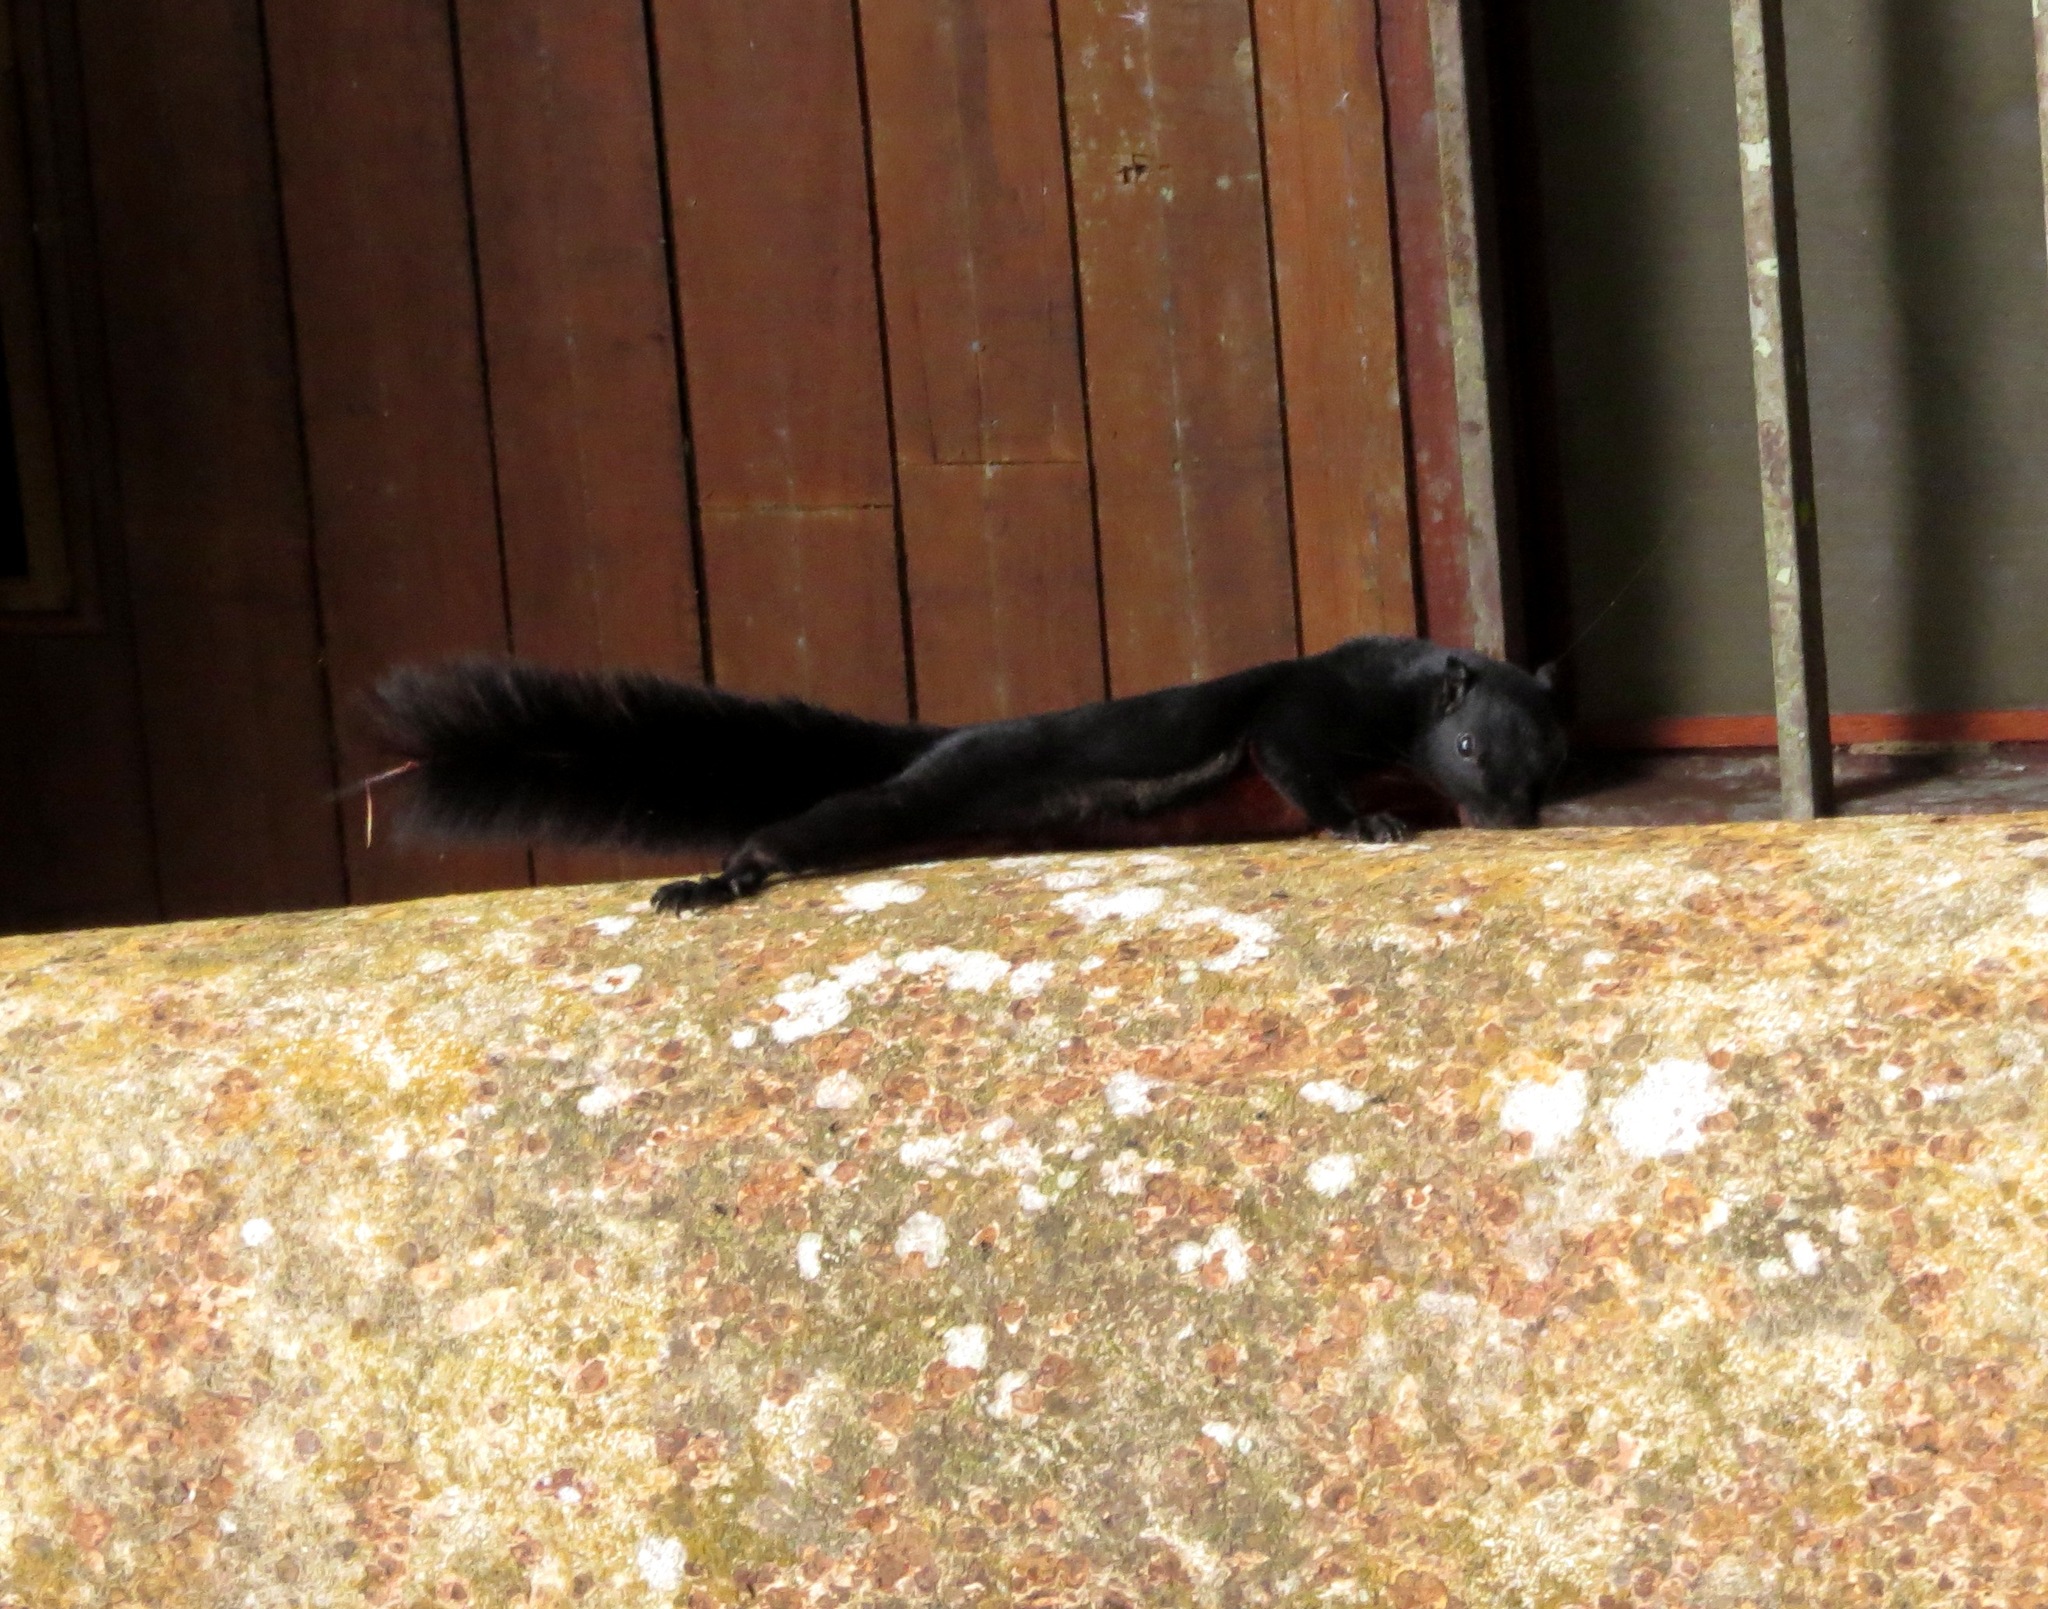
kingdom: Animalia
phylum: Chordata
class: Mammalia
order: Rodentia
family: Sciuridae
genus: Callosciurus
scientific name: Callosciurus prevostii
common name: Prevost's squirrel
